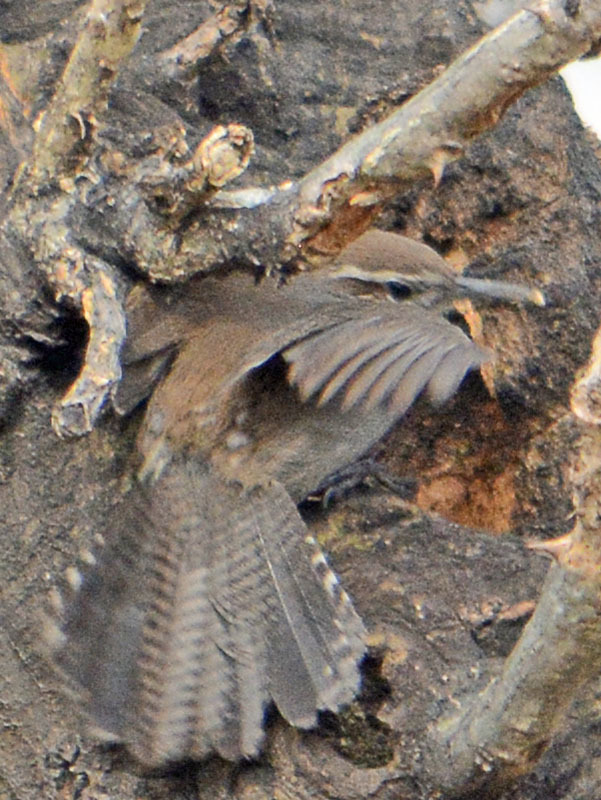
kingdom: Animalia
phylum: Chordata
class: Aves
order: Passeriformes
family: Troglodytidae
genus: Thryomanes
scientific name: Thryomanes bewickii
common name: Bewick's wren
